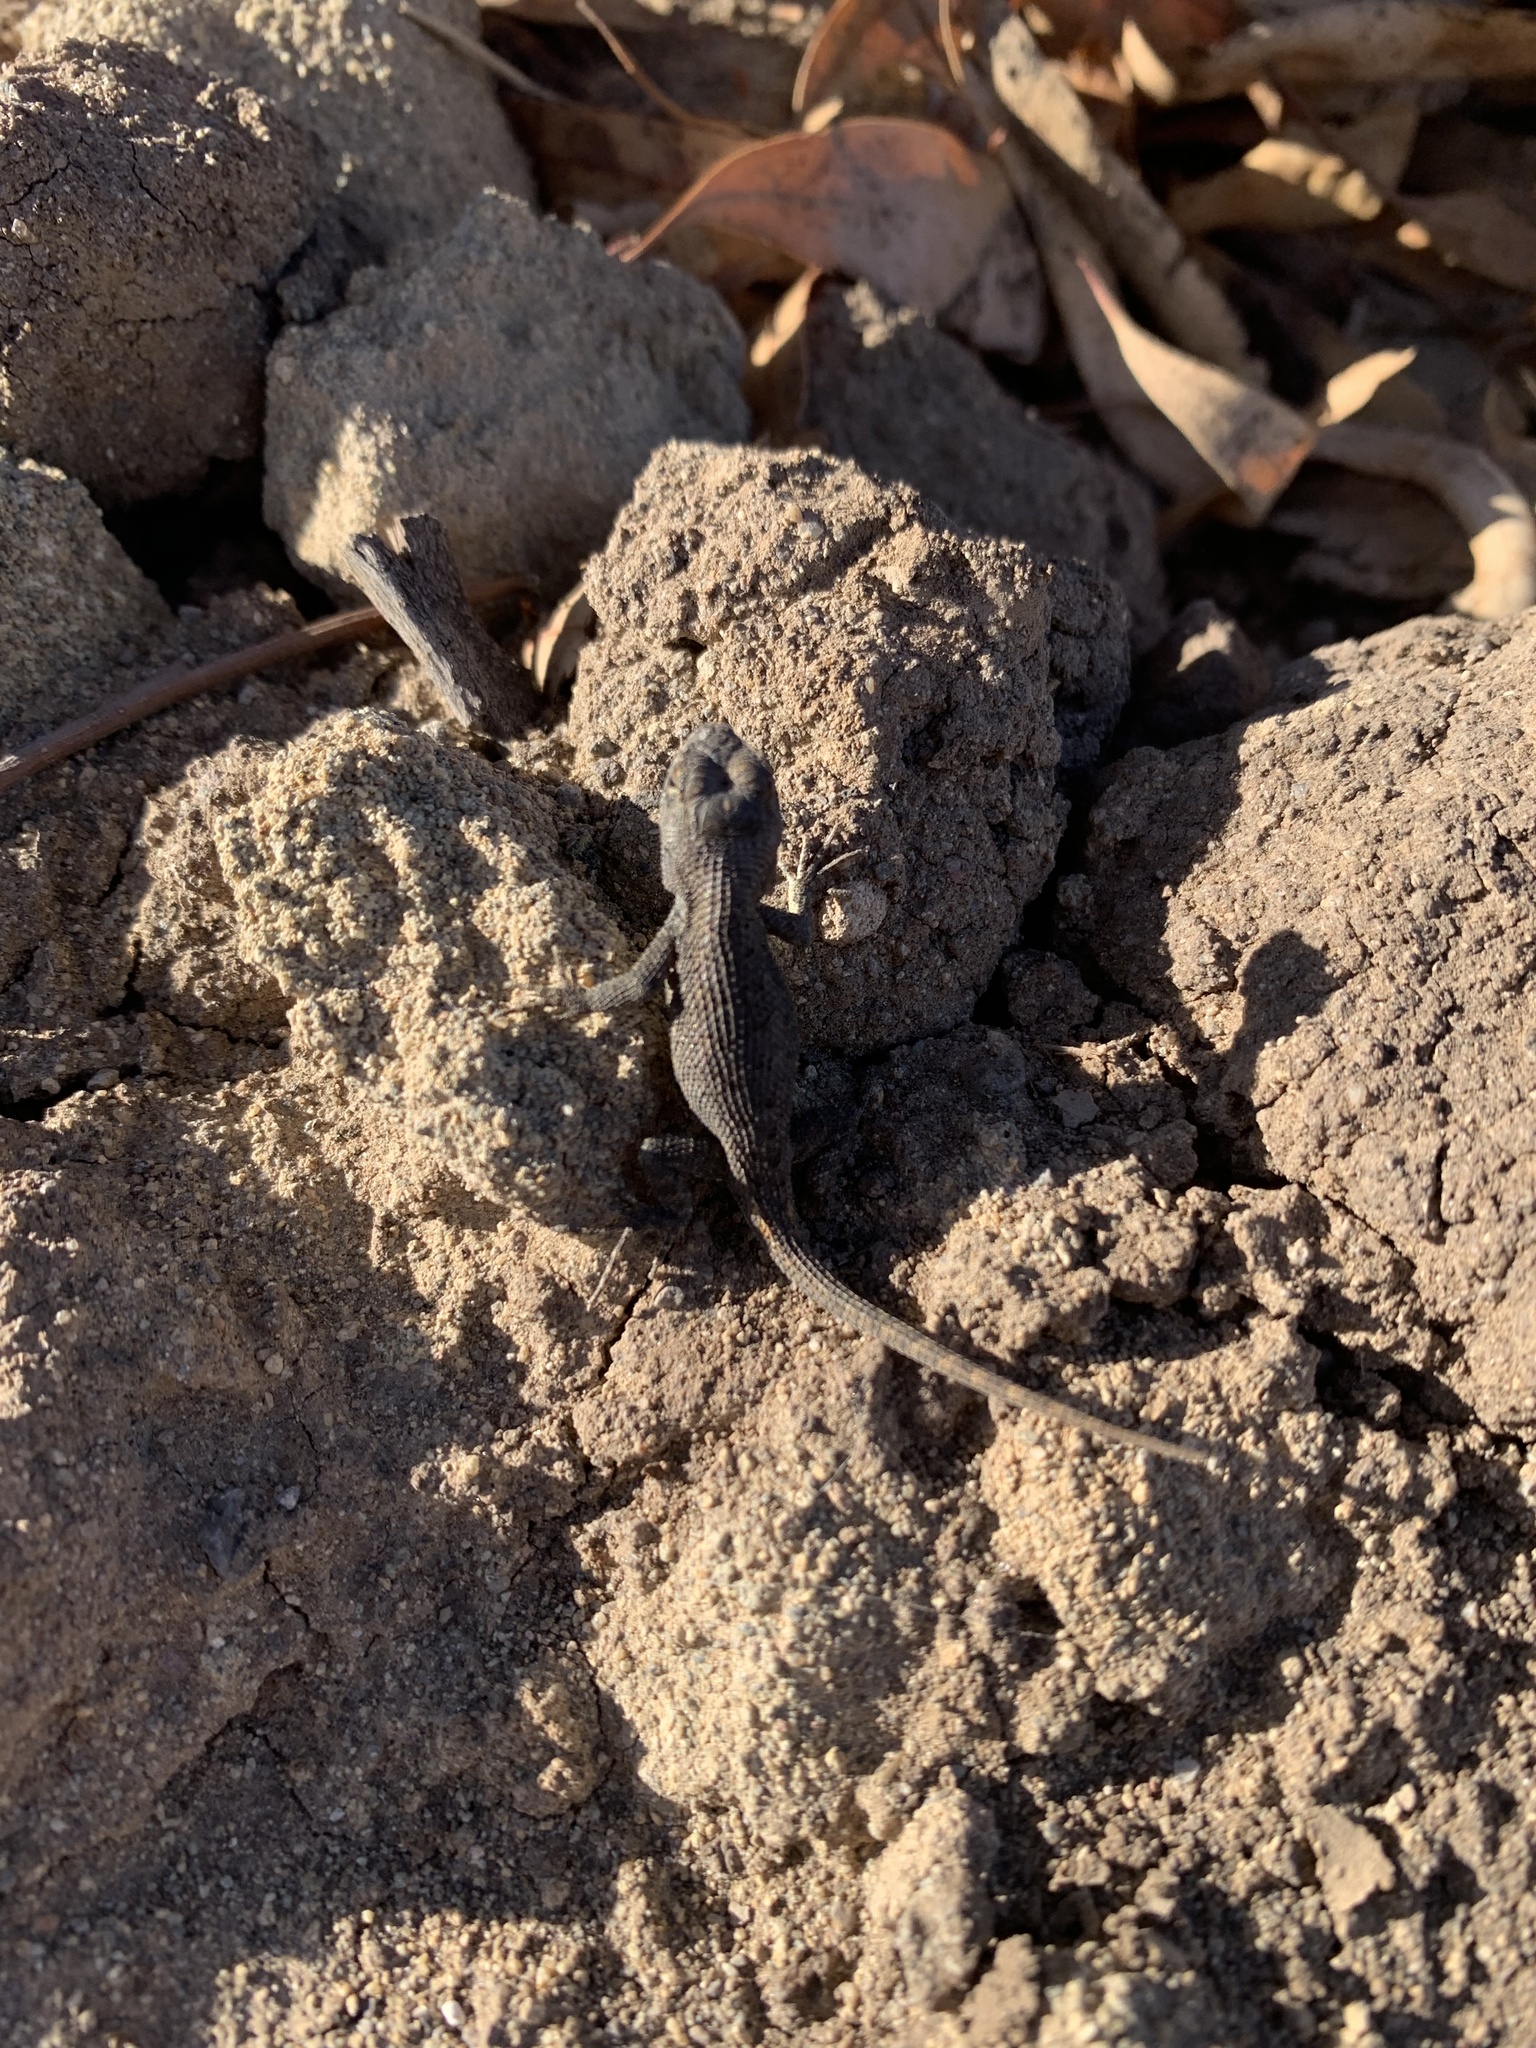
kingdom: Animalia
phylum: Chordata
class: Squamata
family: Phrynosomatidae
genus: Sceloporus
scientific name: Sceloporus occidentalis
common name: Western fence lizard
